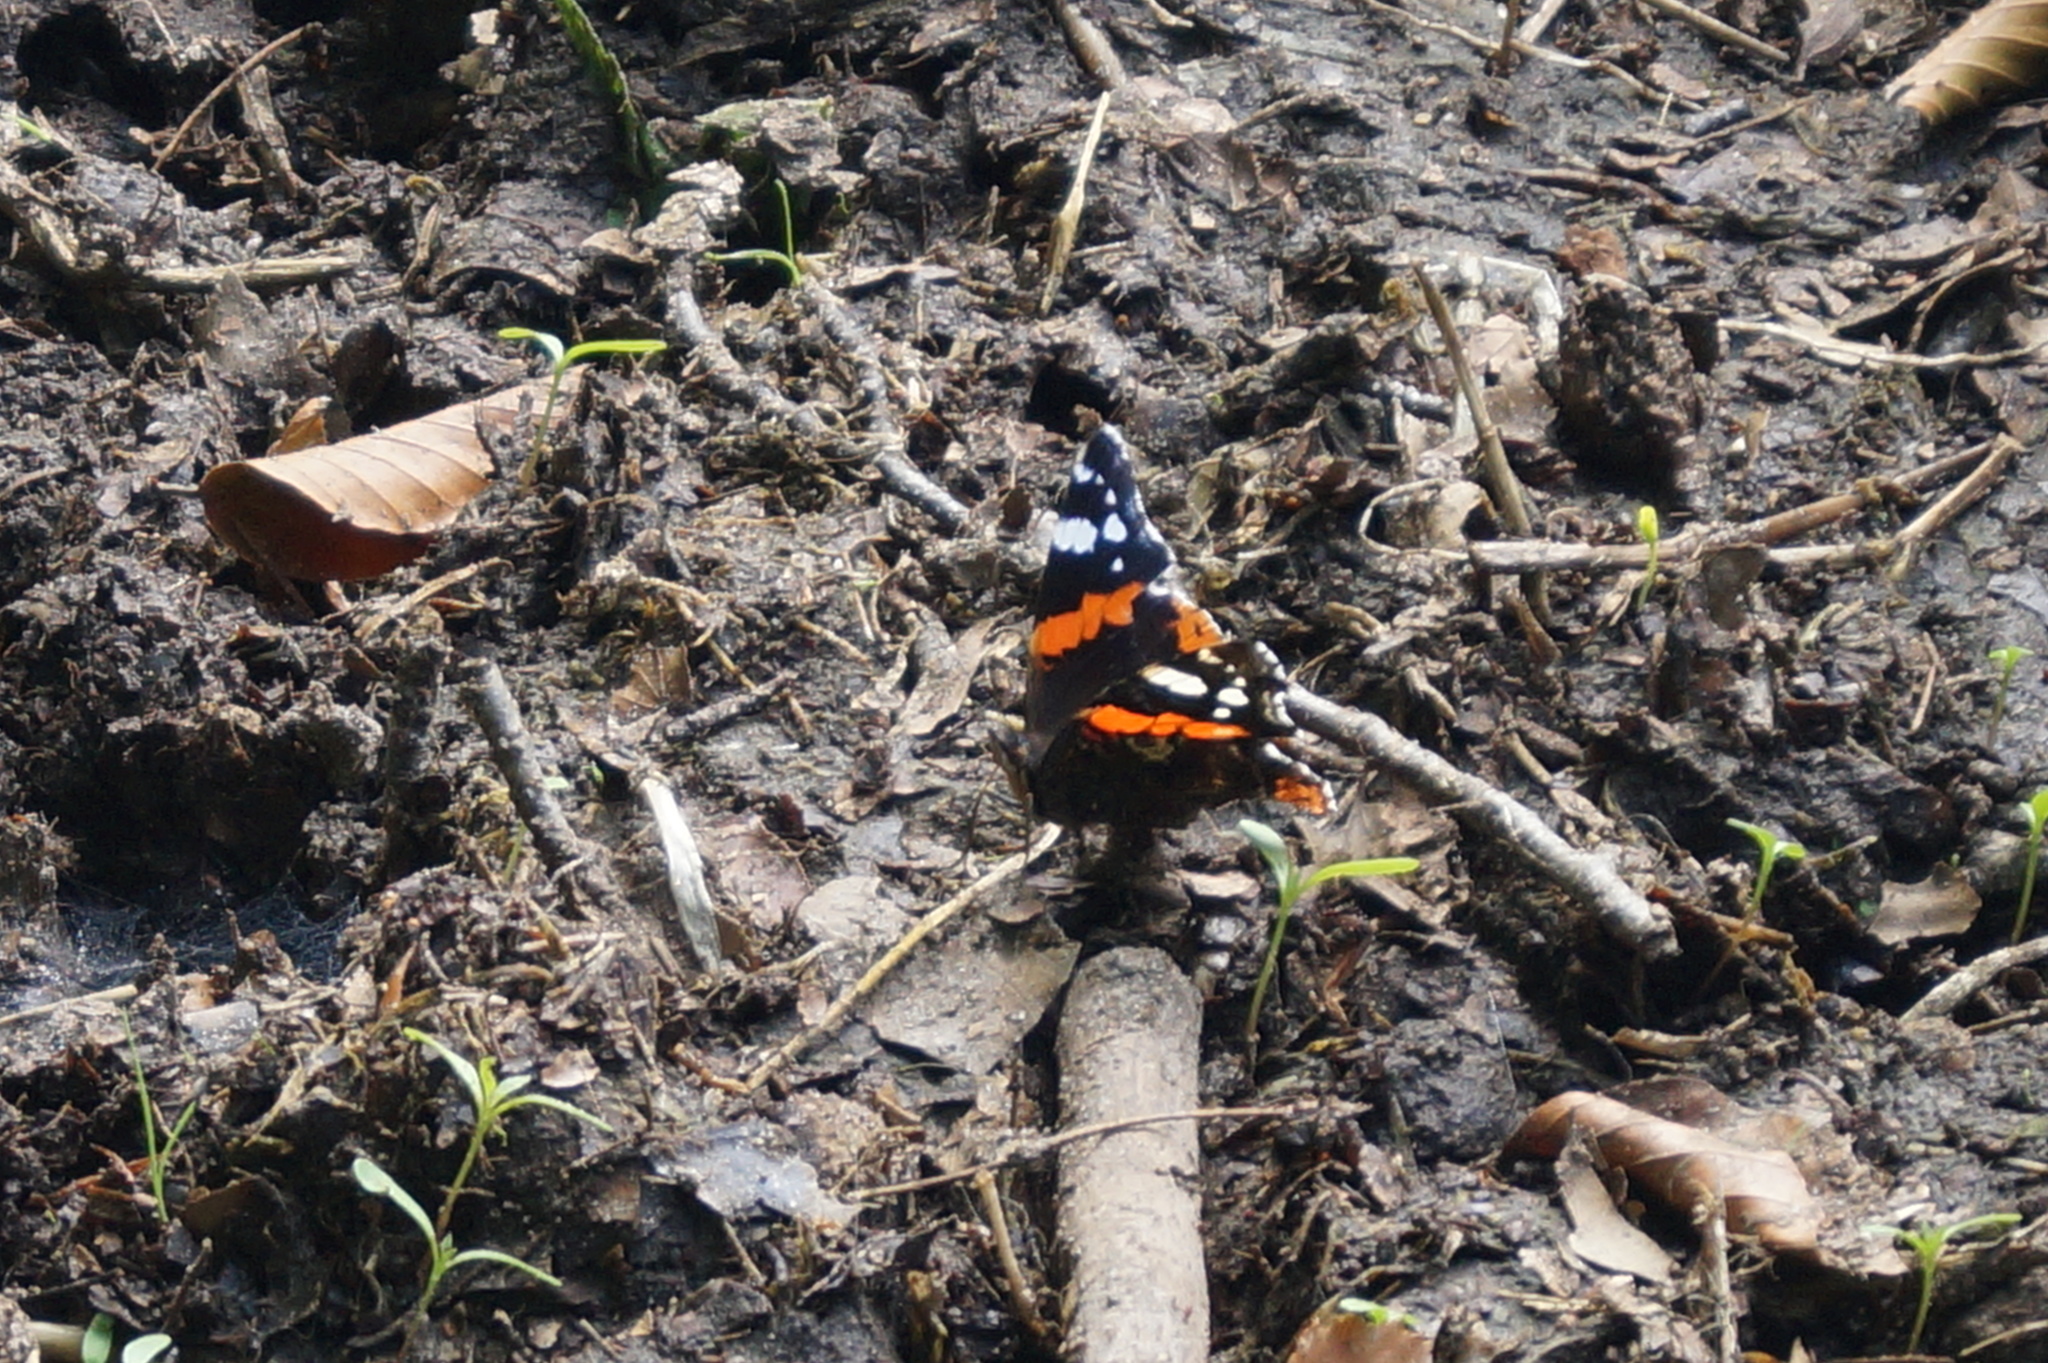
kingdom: Animalia
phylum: Arthropoda
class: Insecta
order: Lepidoptera
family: Nymphalidae
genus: Vanessa
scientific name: Vanessa atalanta
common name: Red admiral
